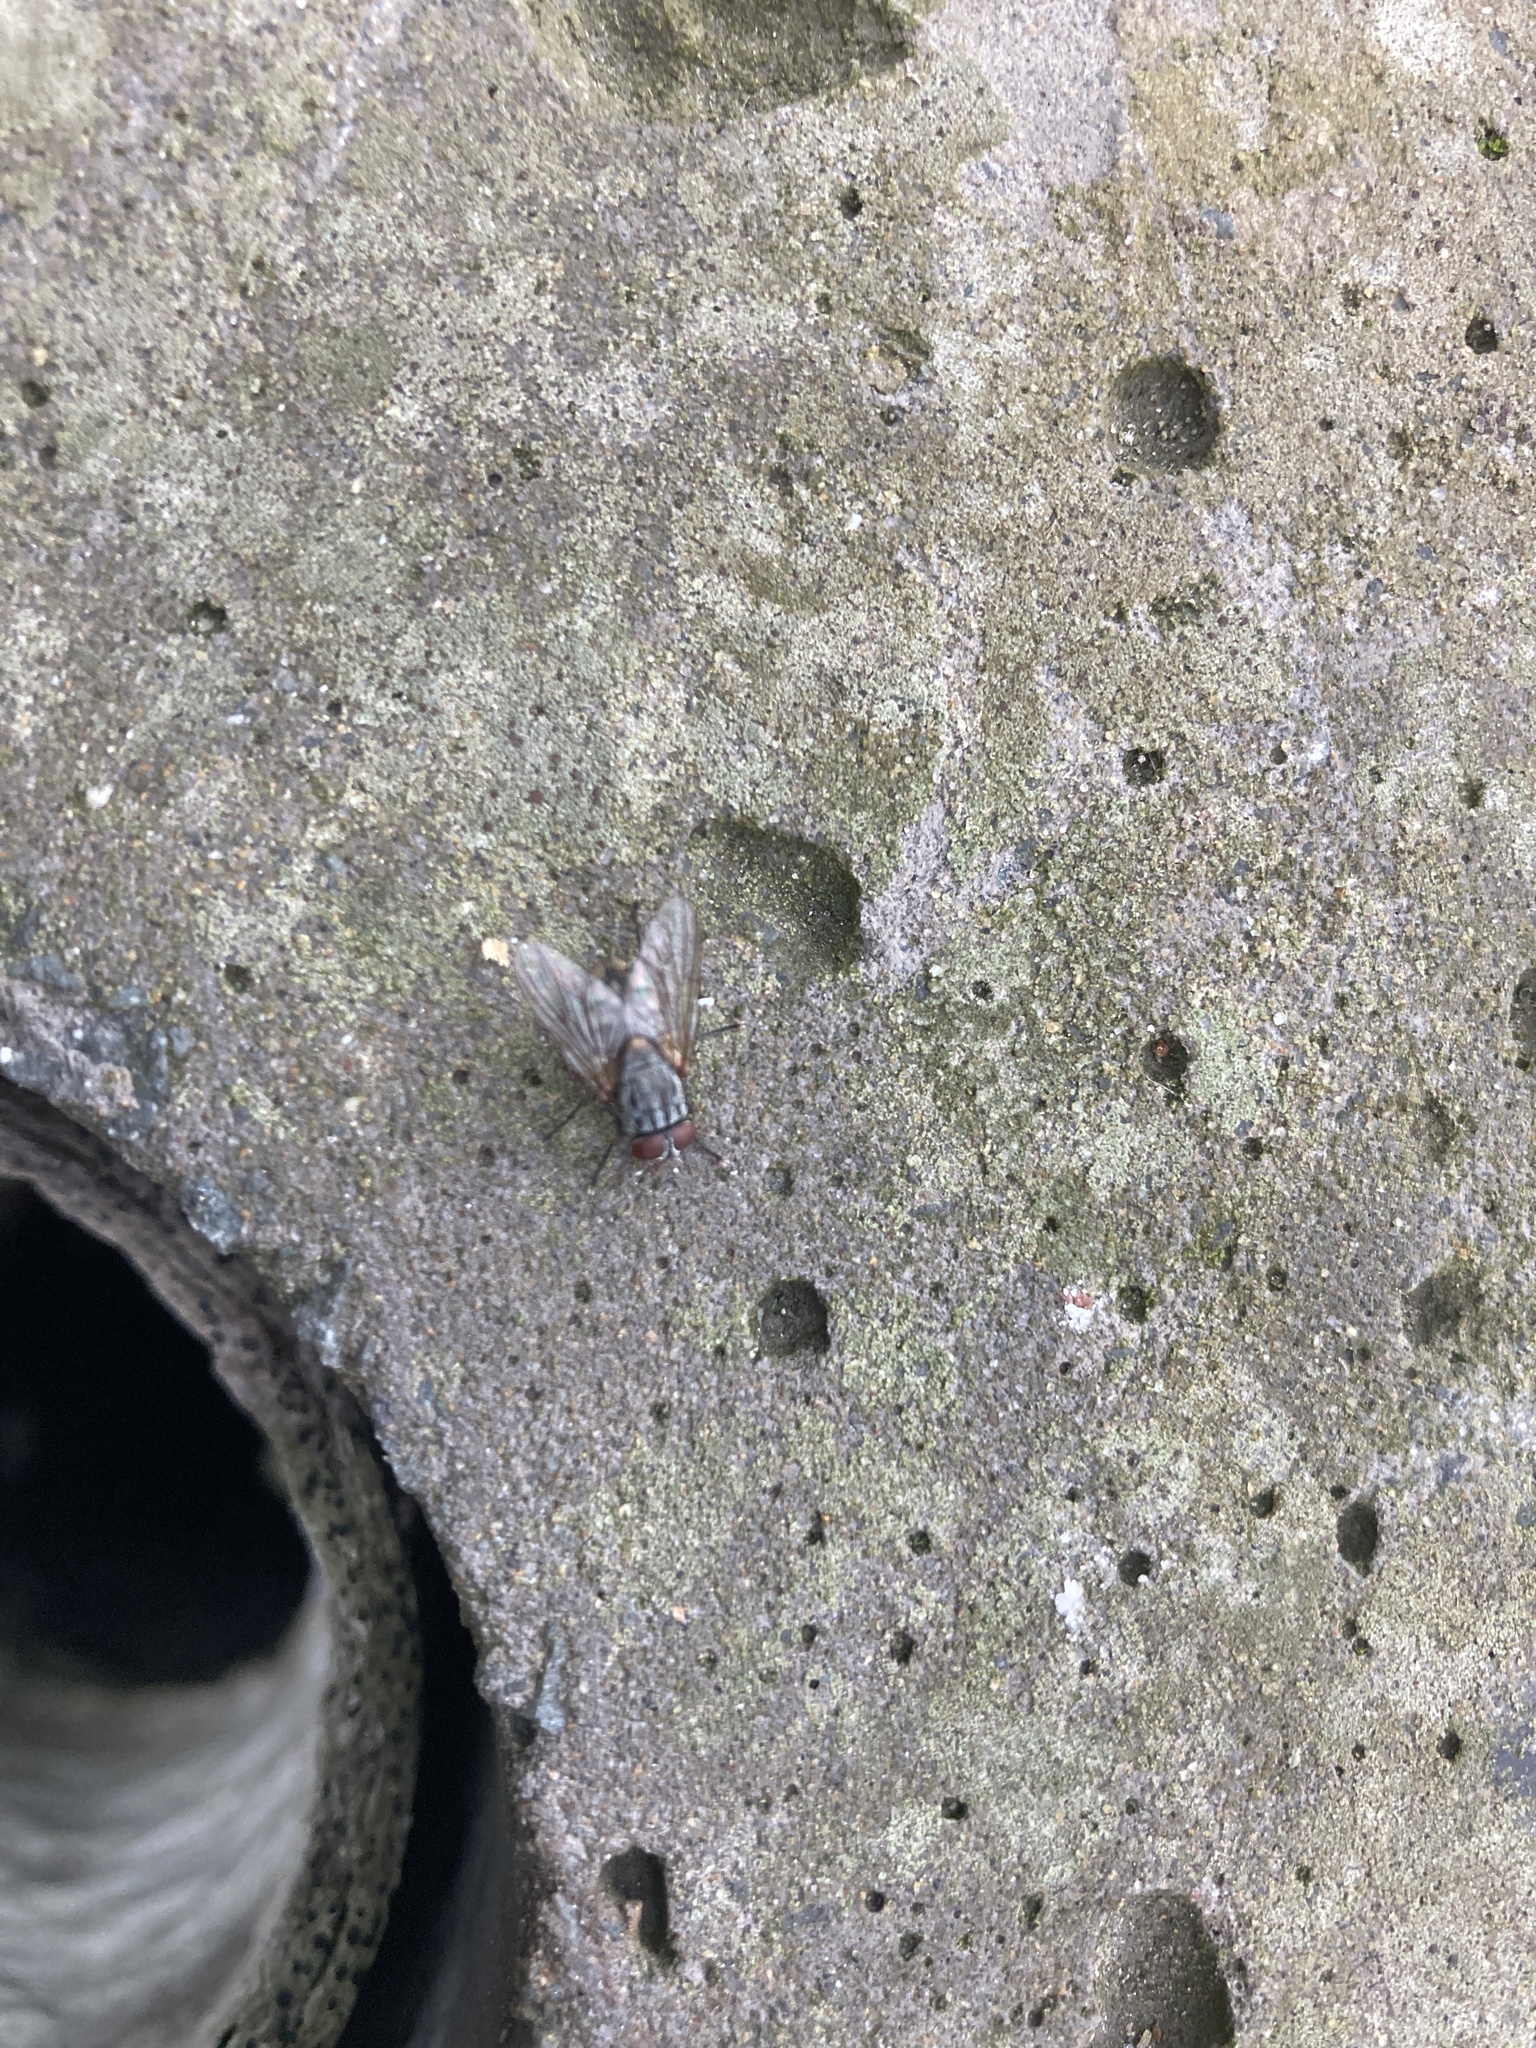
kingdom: Animalia
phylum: Arthropoda
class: Insecta
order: Diptera
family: Muscidae
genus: Muscina
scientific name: Muscina stabulans
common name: False stable fly
